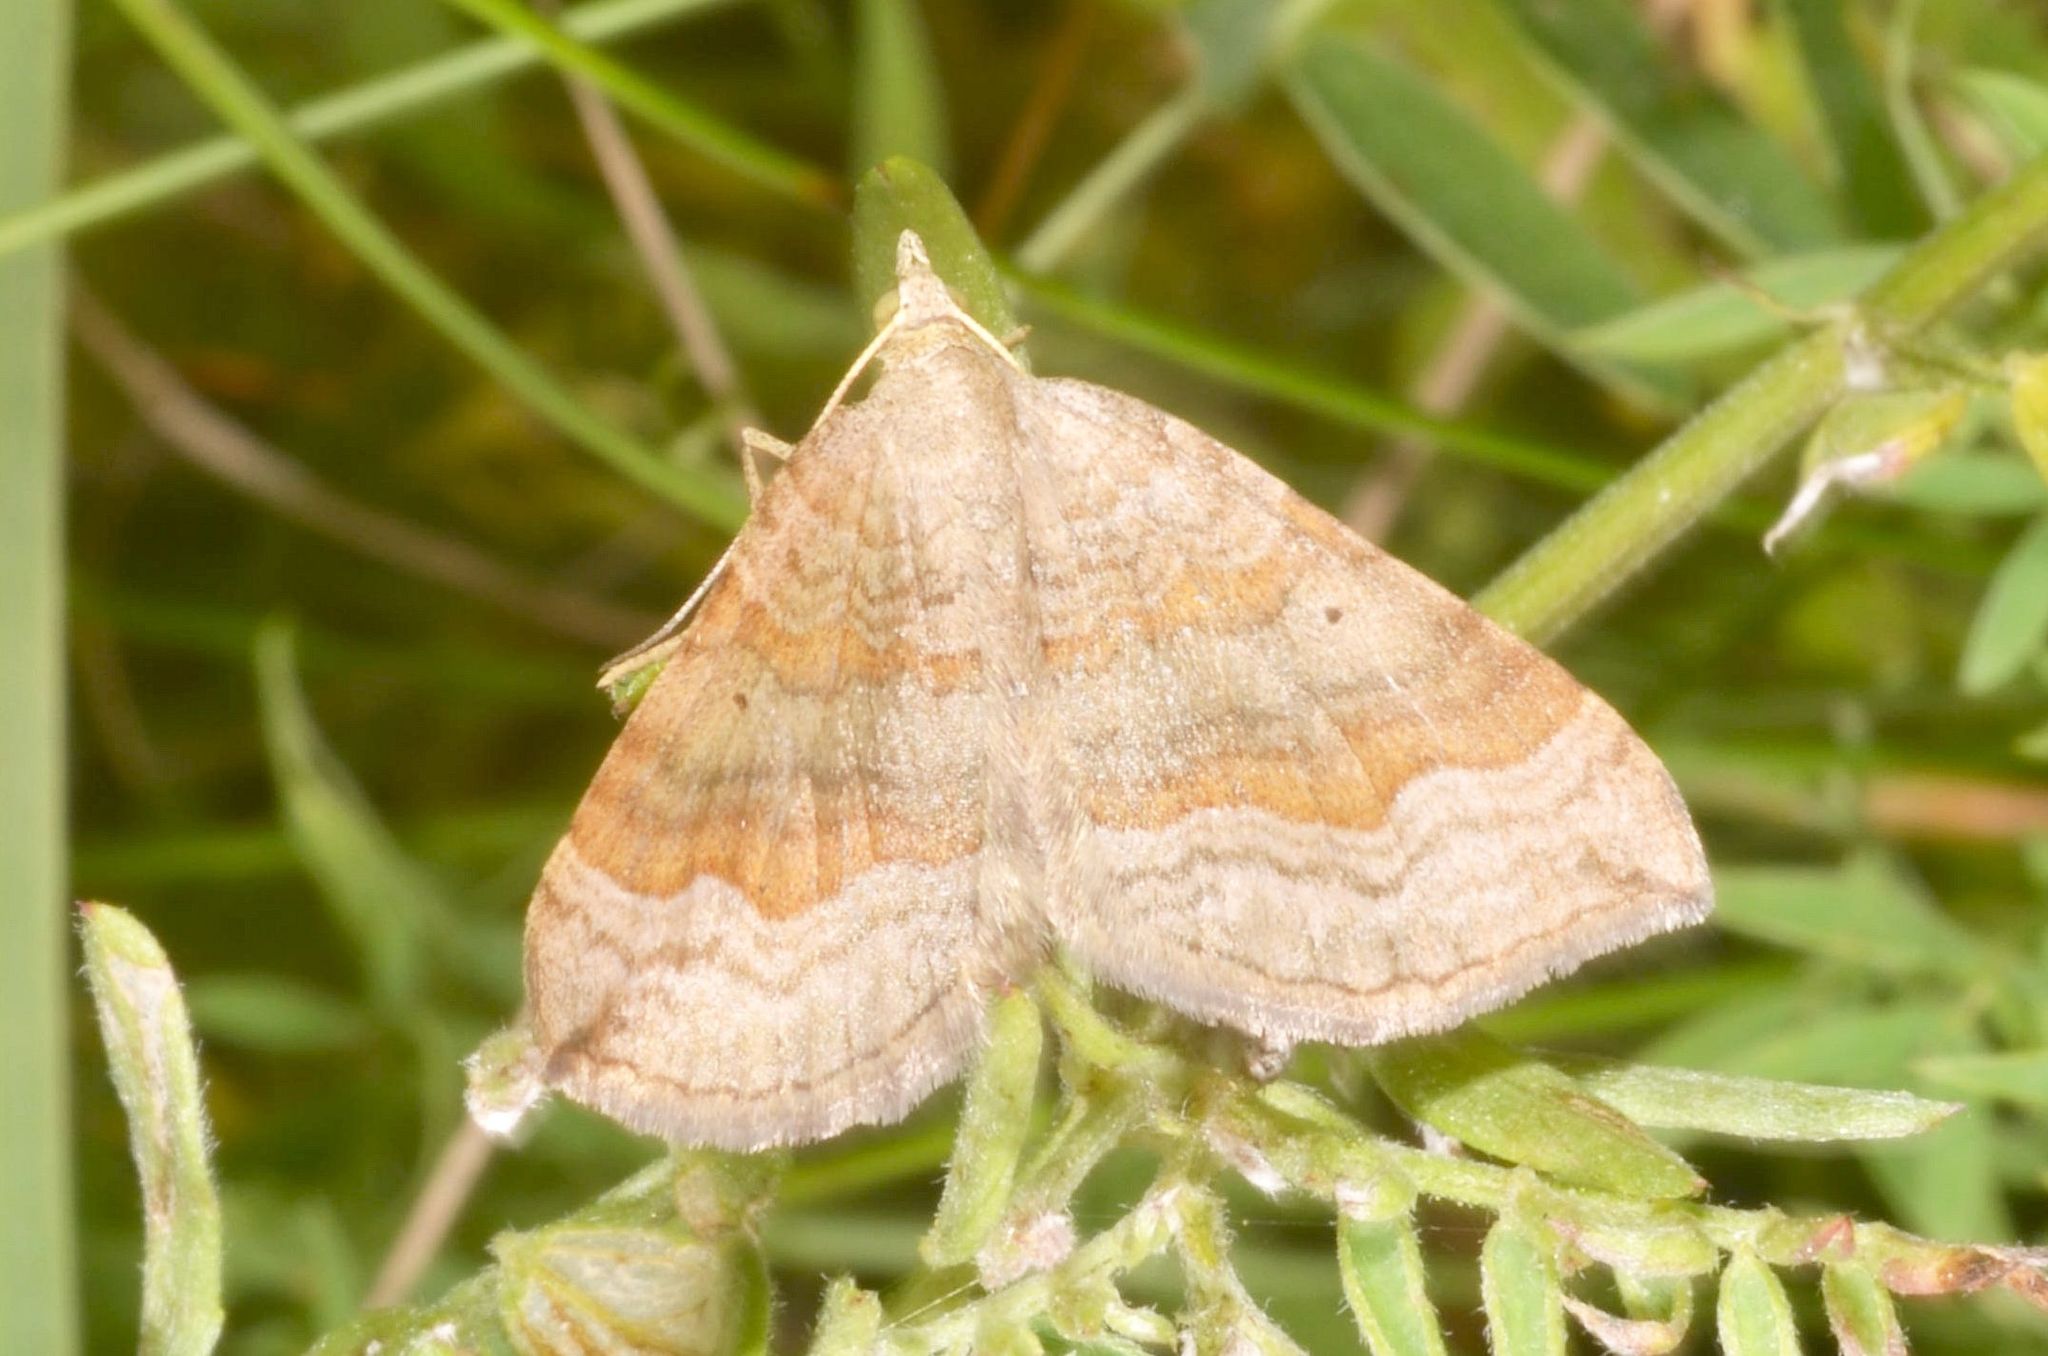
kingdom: Animalia
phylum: Arthropoda
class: Insecta
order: Lepidoptera
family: Geometridae
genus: Scotopteryx
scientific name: Scotopteryx chenopodiata
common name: Shaded broad-bar
